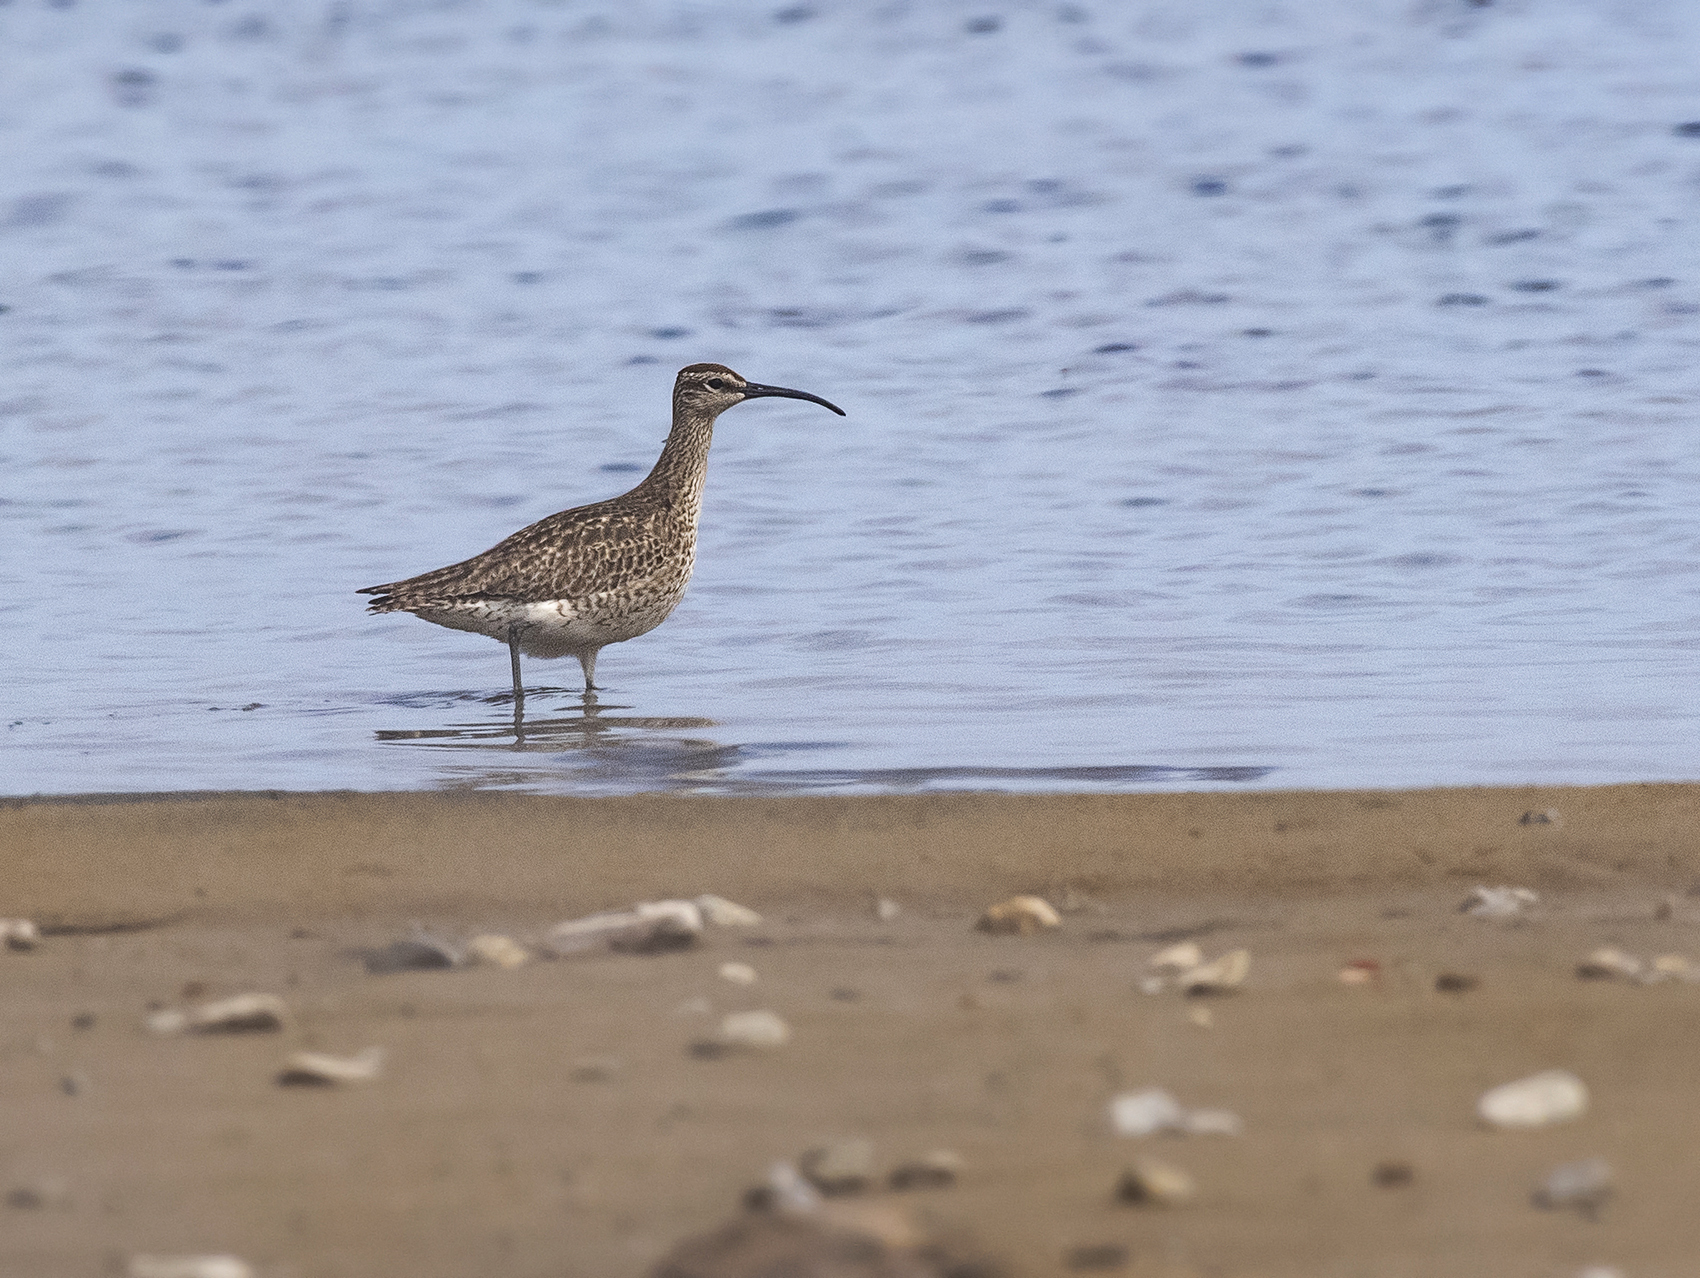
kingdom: Animalia
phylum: Chordata
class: Aves
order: Charadriiformes
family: Scolopacidae
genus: Numenius
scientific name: Numenius phaeopus
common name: Whimbrel
